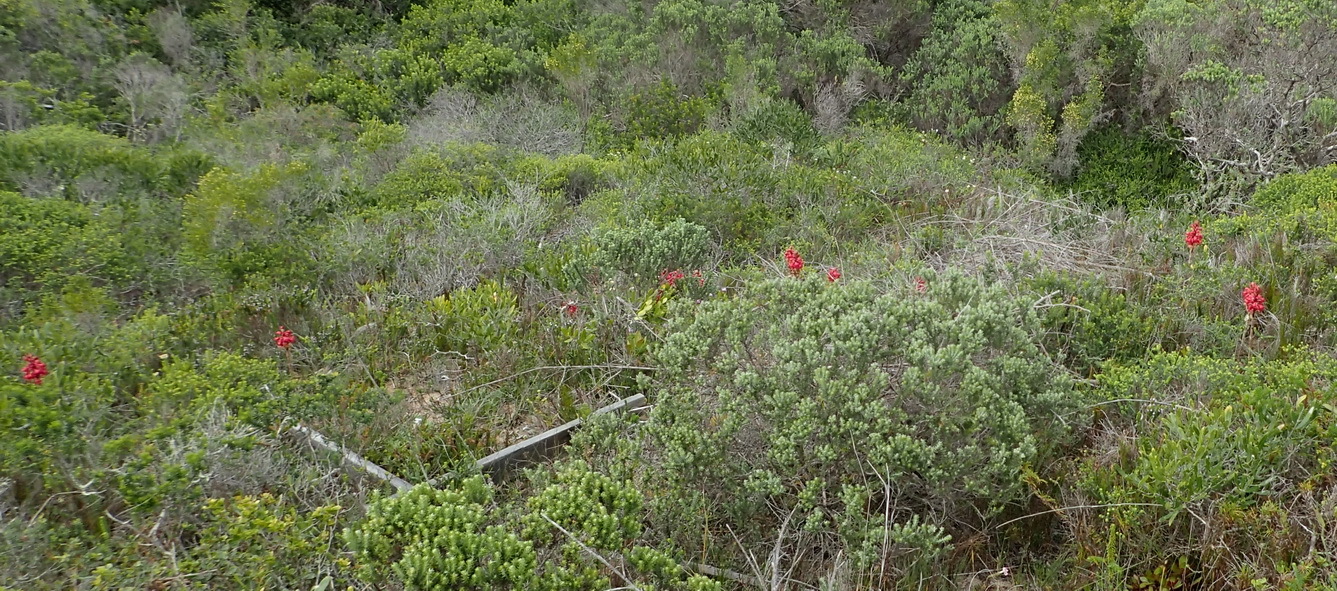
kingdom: Plantae
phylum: Tracheophyta
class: Liliopsida
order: Asparagales
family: Orchidaceae
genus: Satyrium
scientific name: Satyrium princeps
